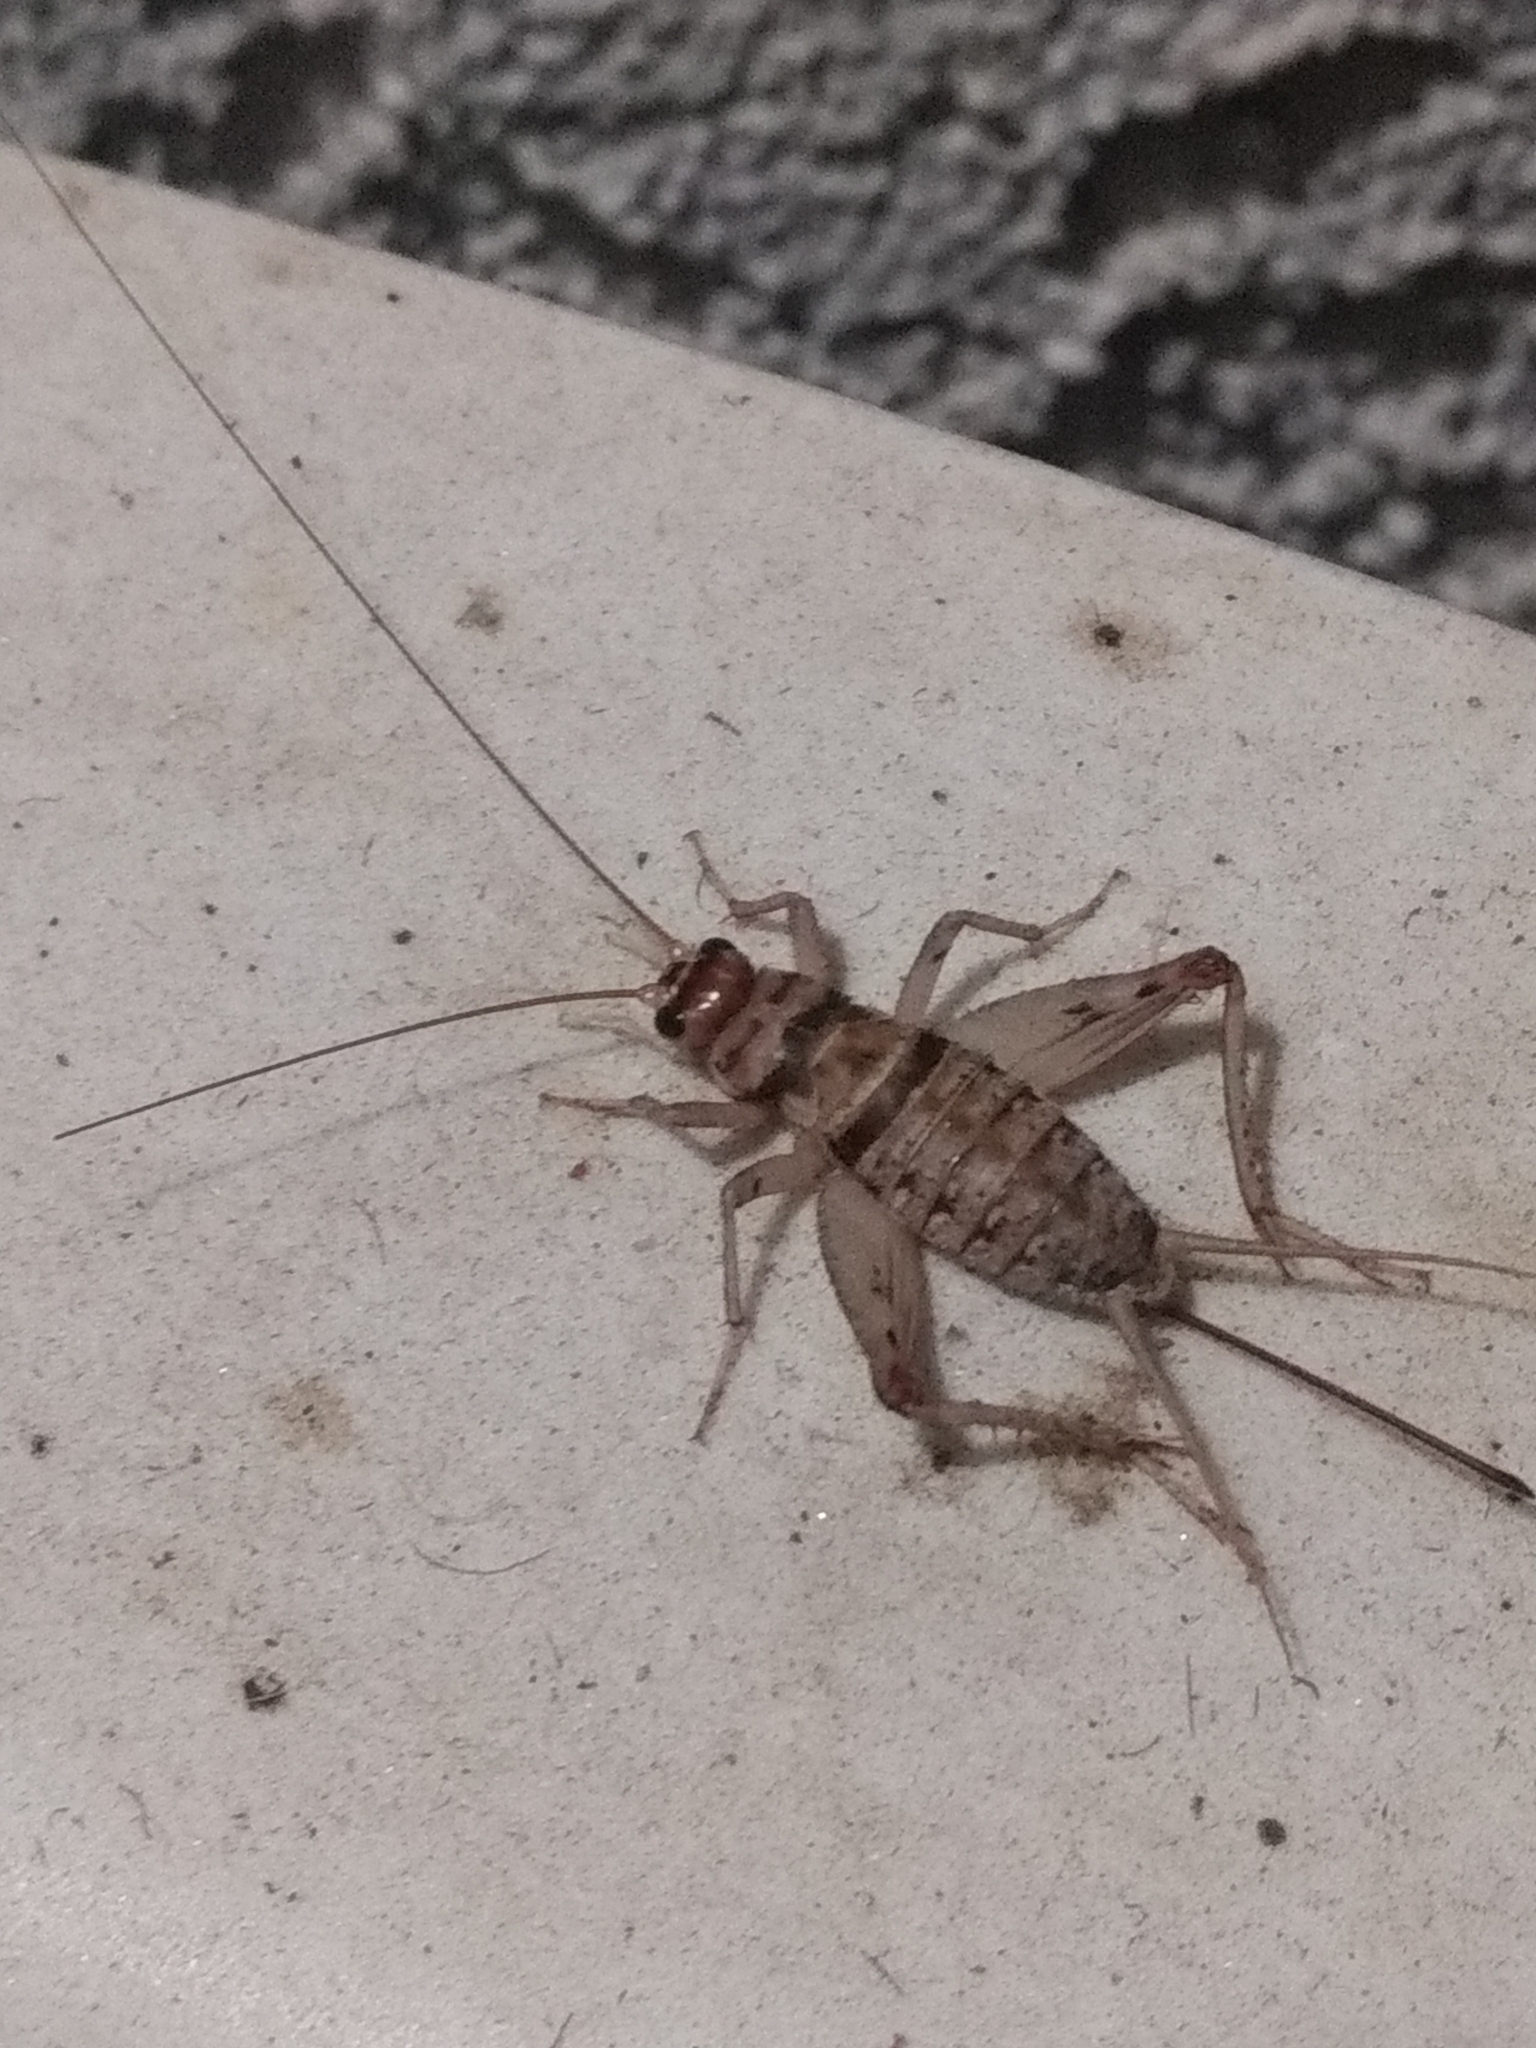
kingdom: Animalia
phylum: Arthropoda
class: Insecta
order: Orthoptera
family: Gryllidae
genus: Gryllodes
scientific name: Gryllodes sigillatus
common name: Tropical house cricket
